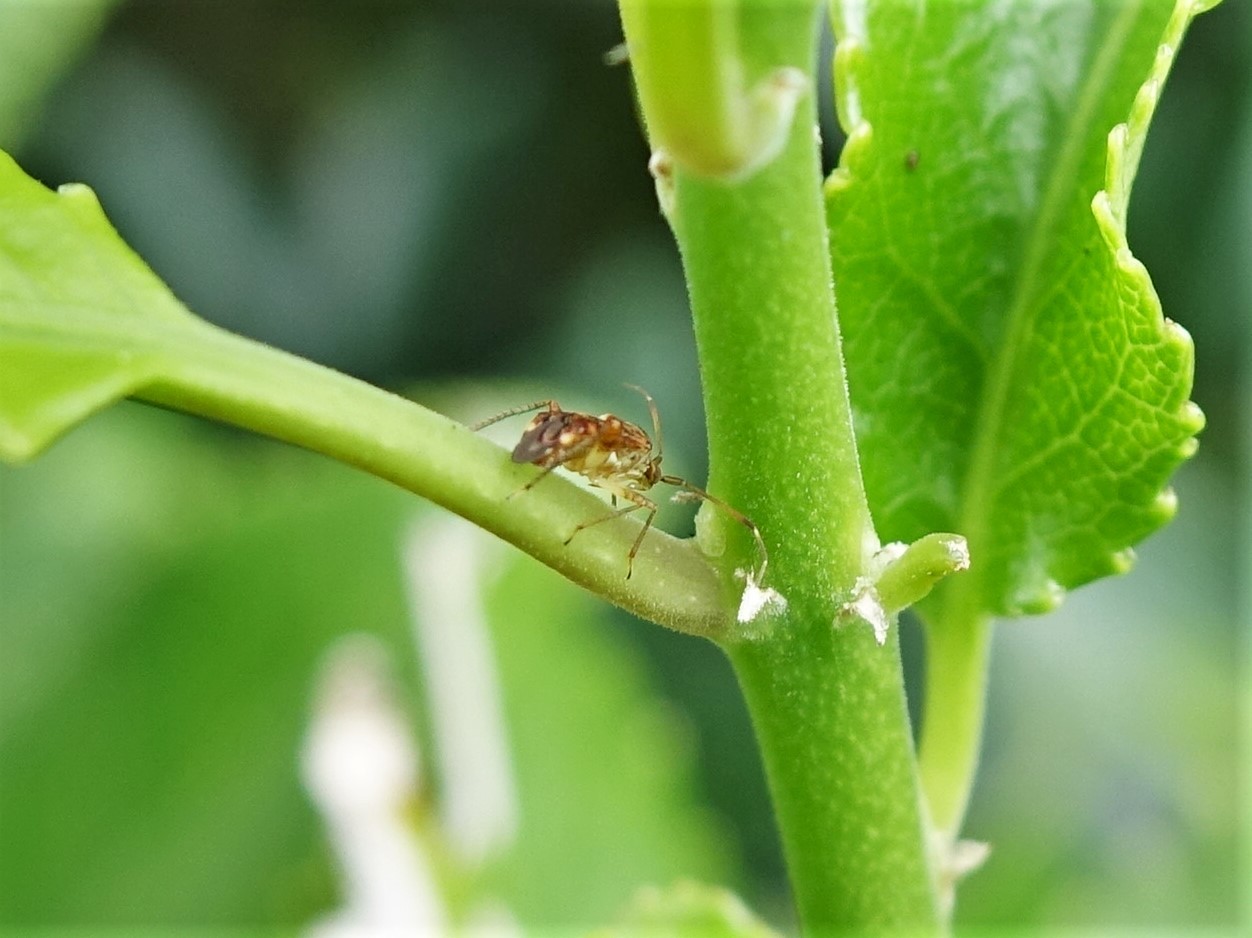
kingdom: Animalia
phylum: Arthropoda
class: Insecta
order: Hemiptera
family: Miridae
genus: Sidnia
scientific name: Sidnia kinbergi
